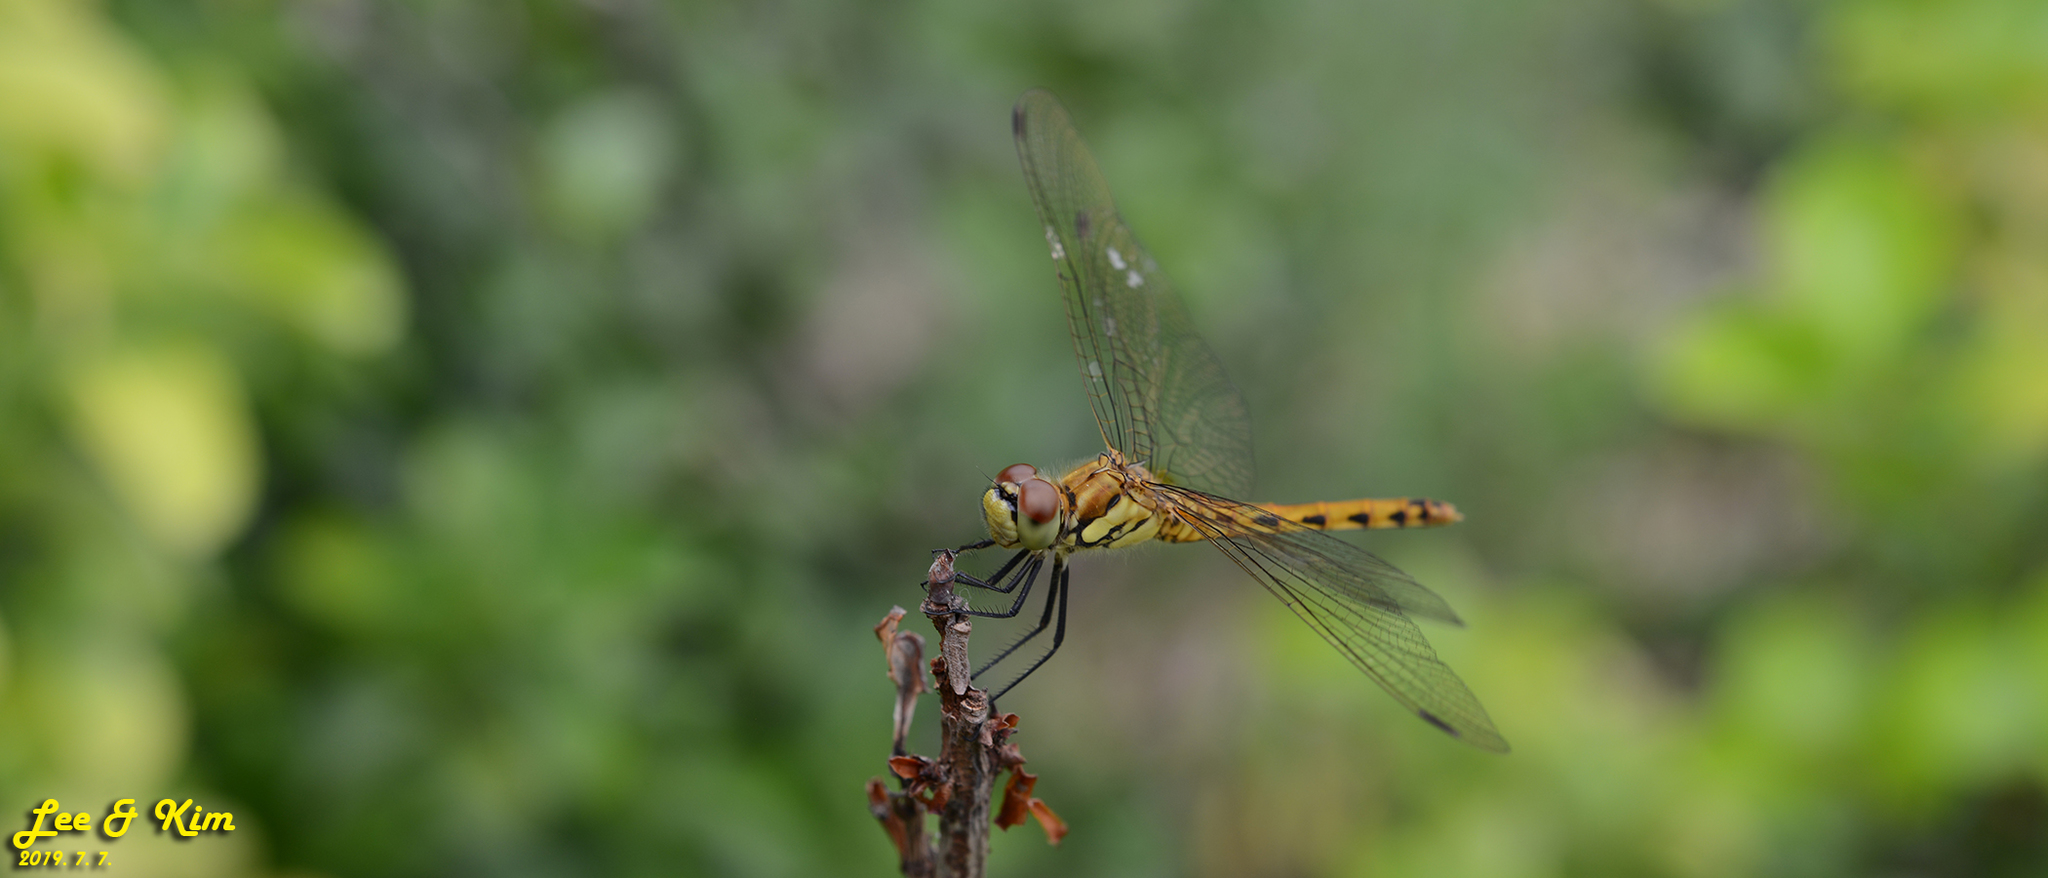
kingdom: Animalia
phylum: Arthropoda
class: Insecta
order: Odonata
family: Libellulidae
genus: Sympetrum
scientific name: Sympetrum depressiusculum
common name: Spotted darter
